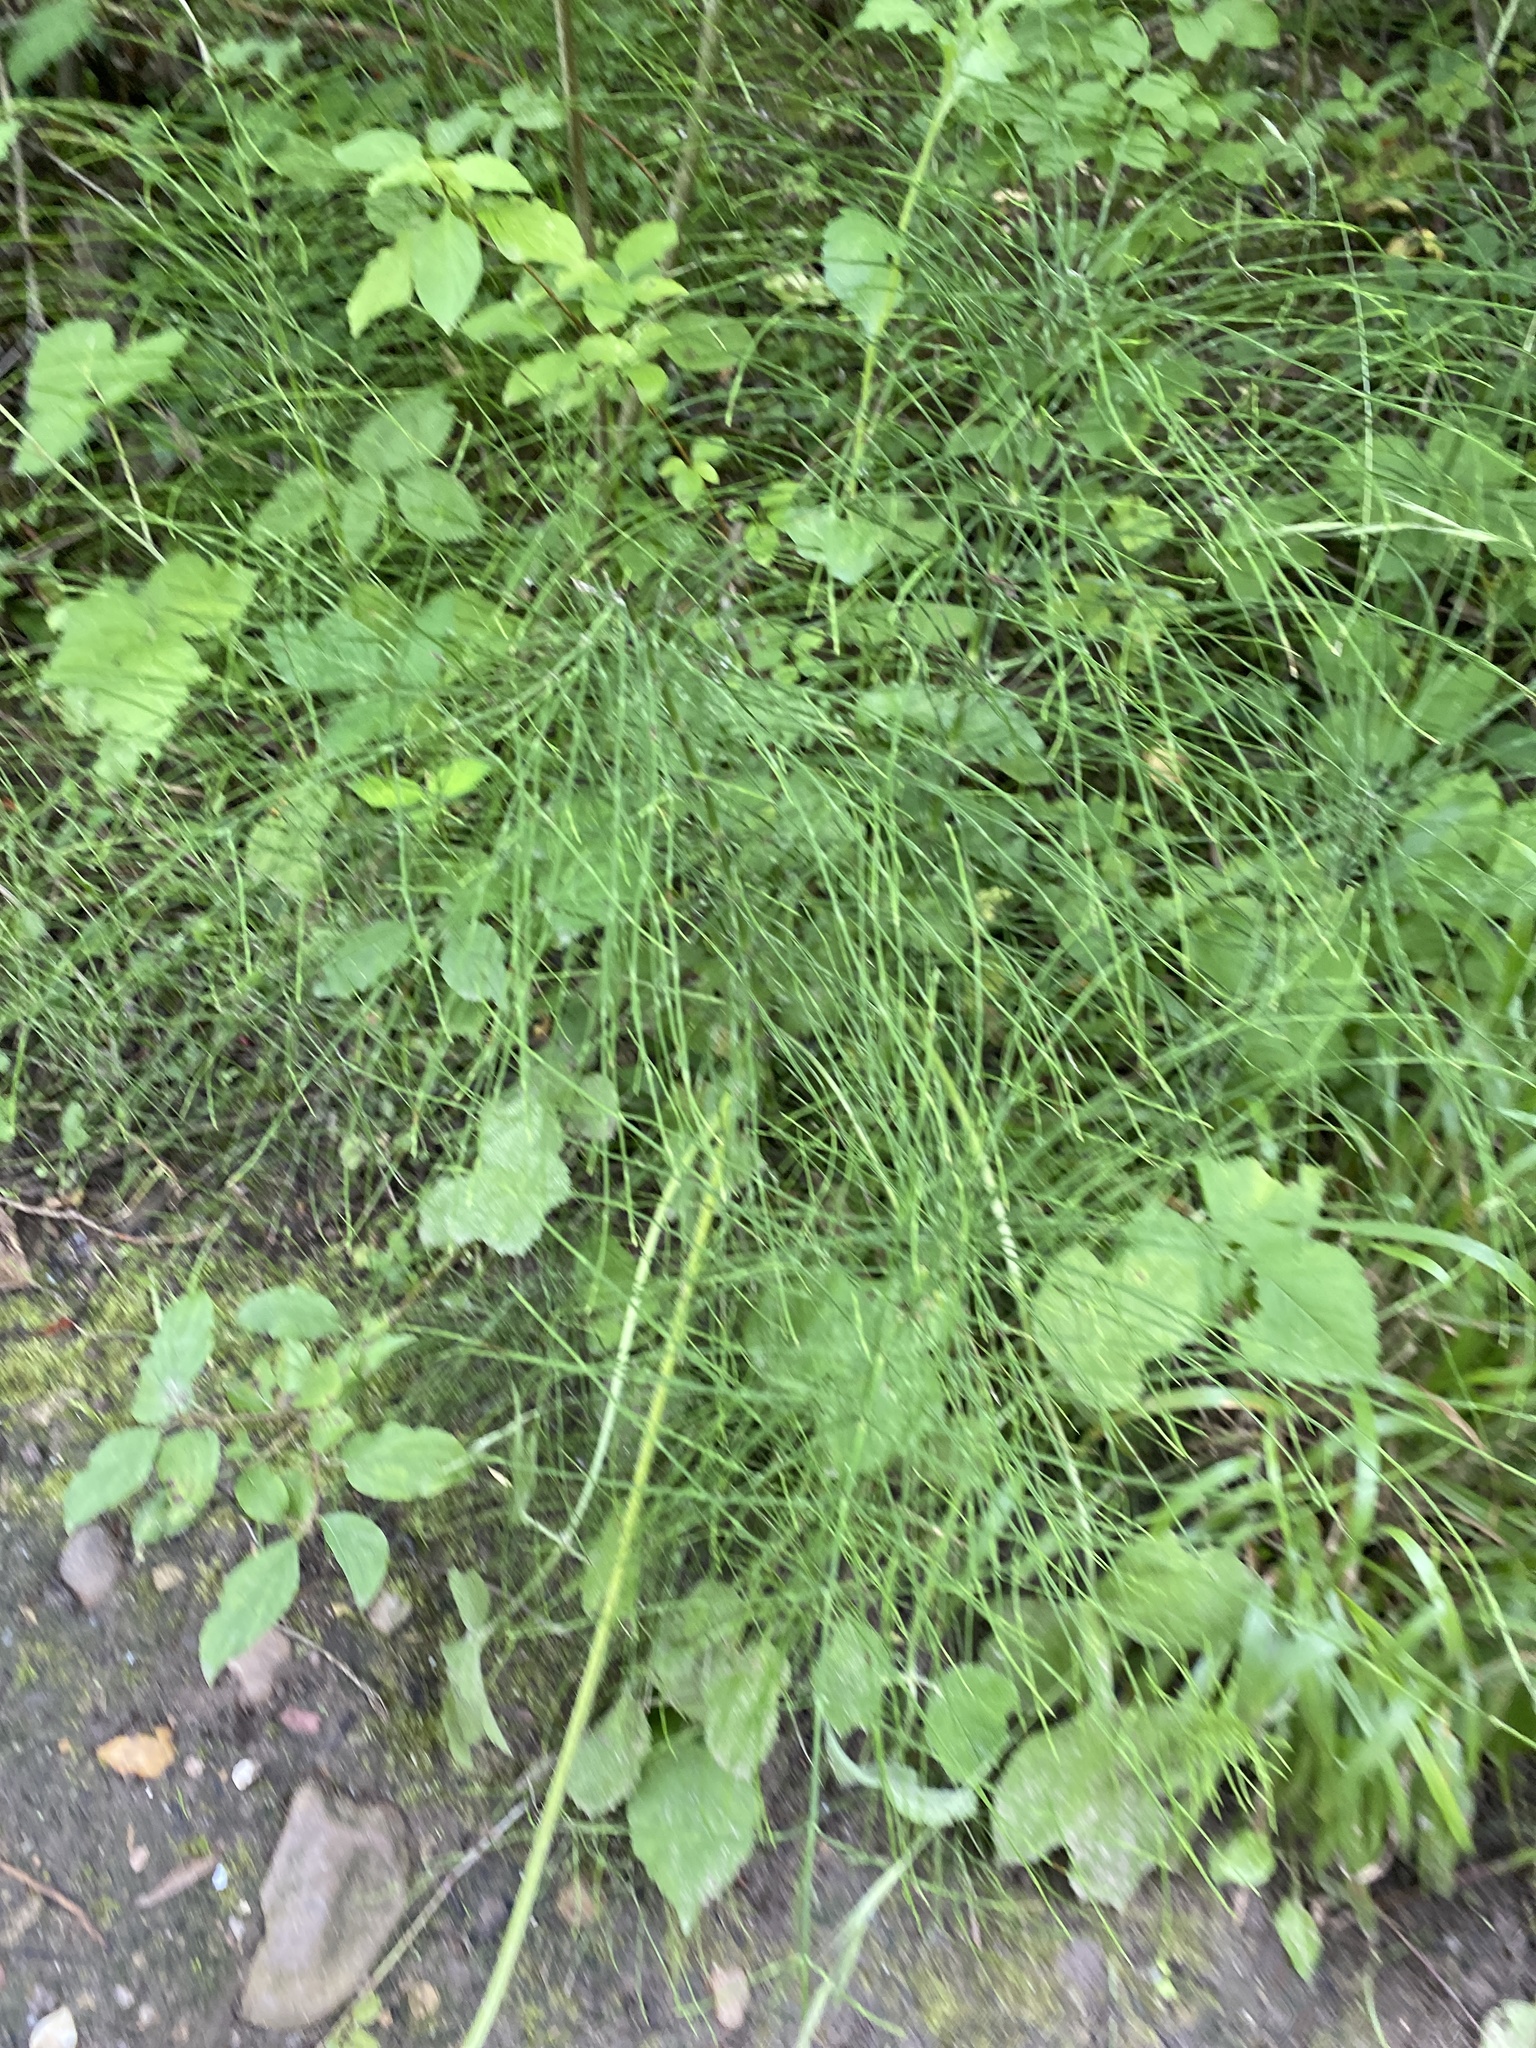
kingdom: Plantae
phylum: Tracheophyta
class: Polypodiopsida
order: Equisetales
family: Equisetaceae
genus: Equisetum
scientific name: Equisetum arvense
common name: Field horsetail
